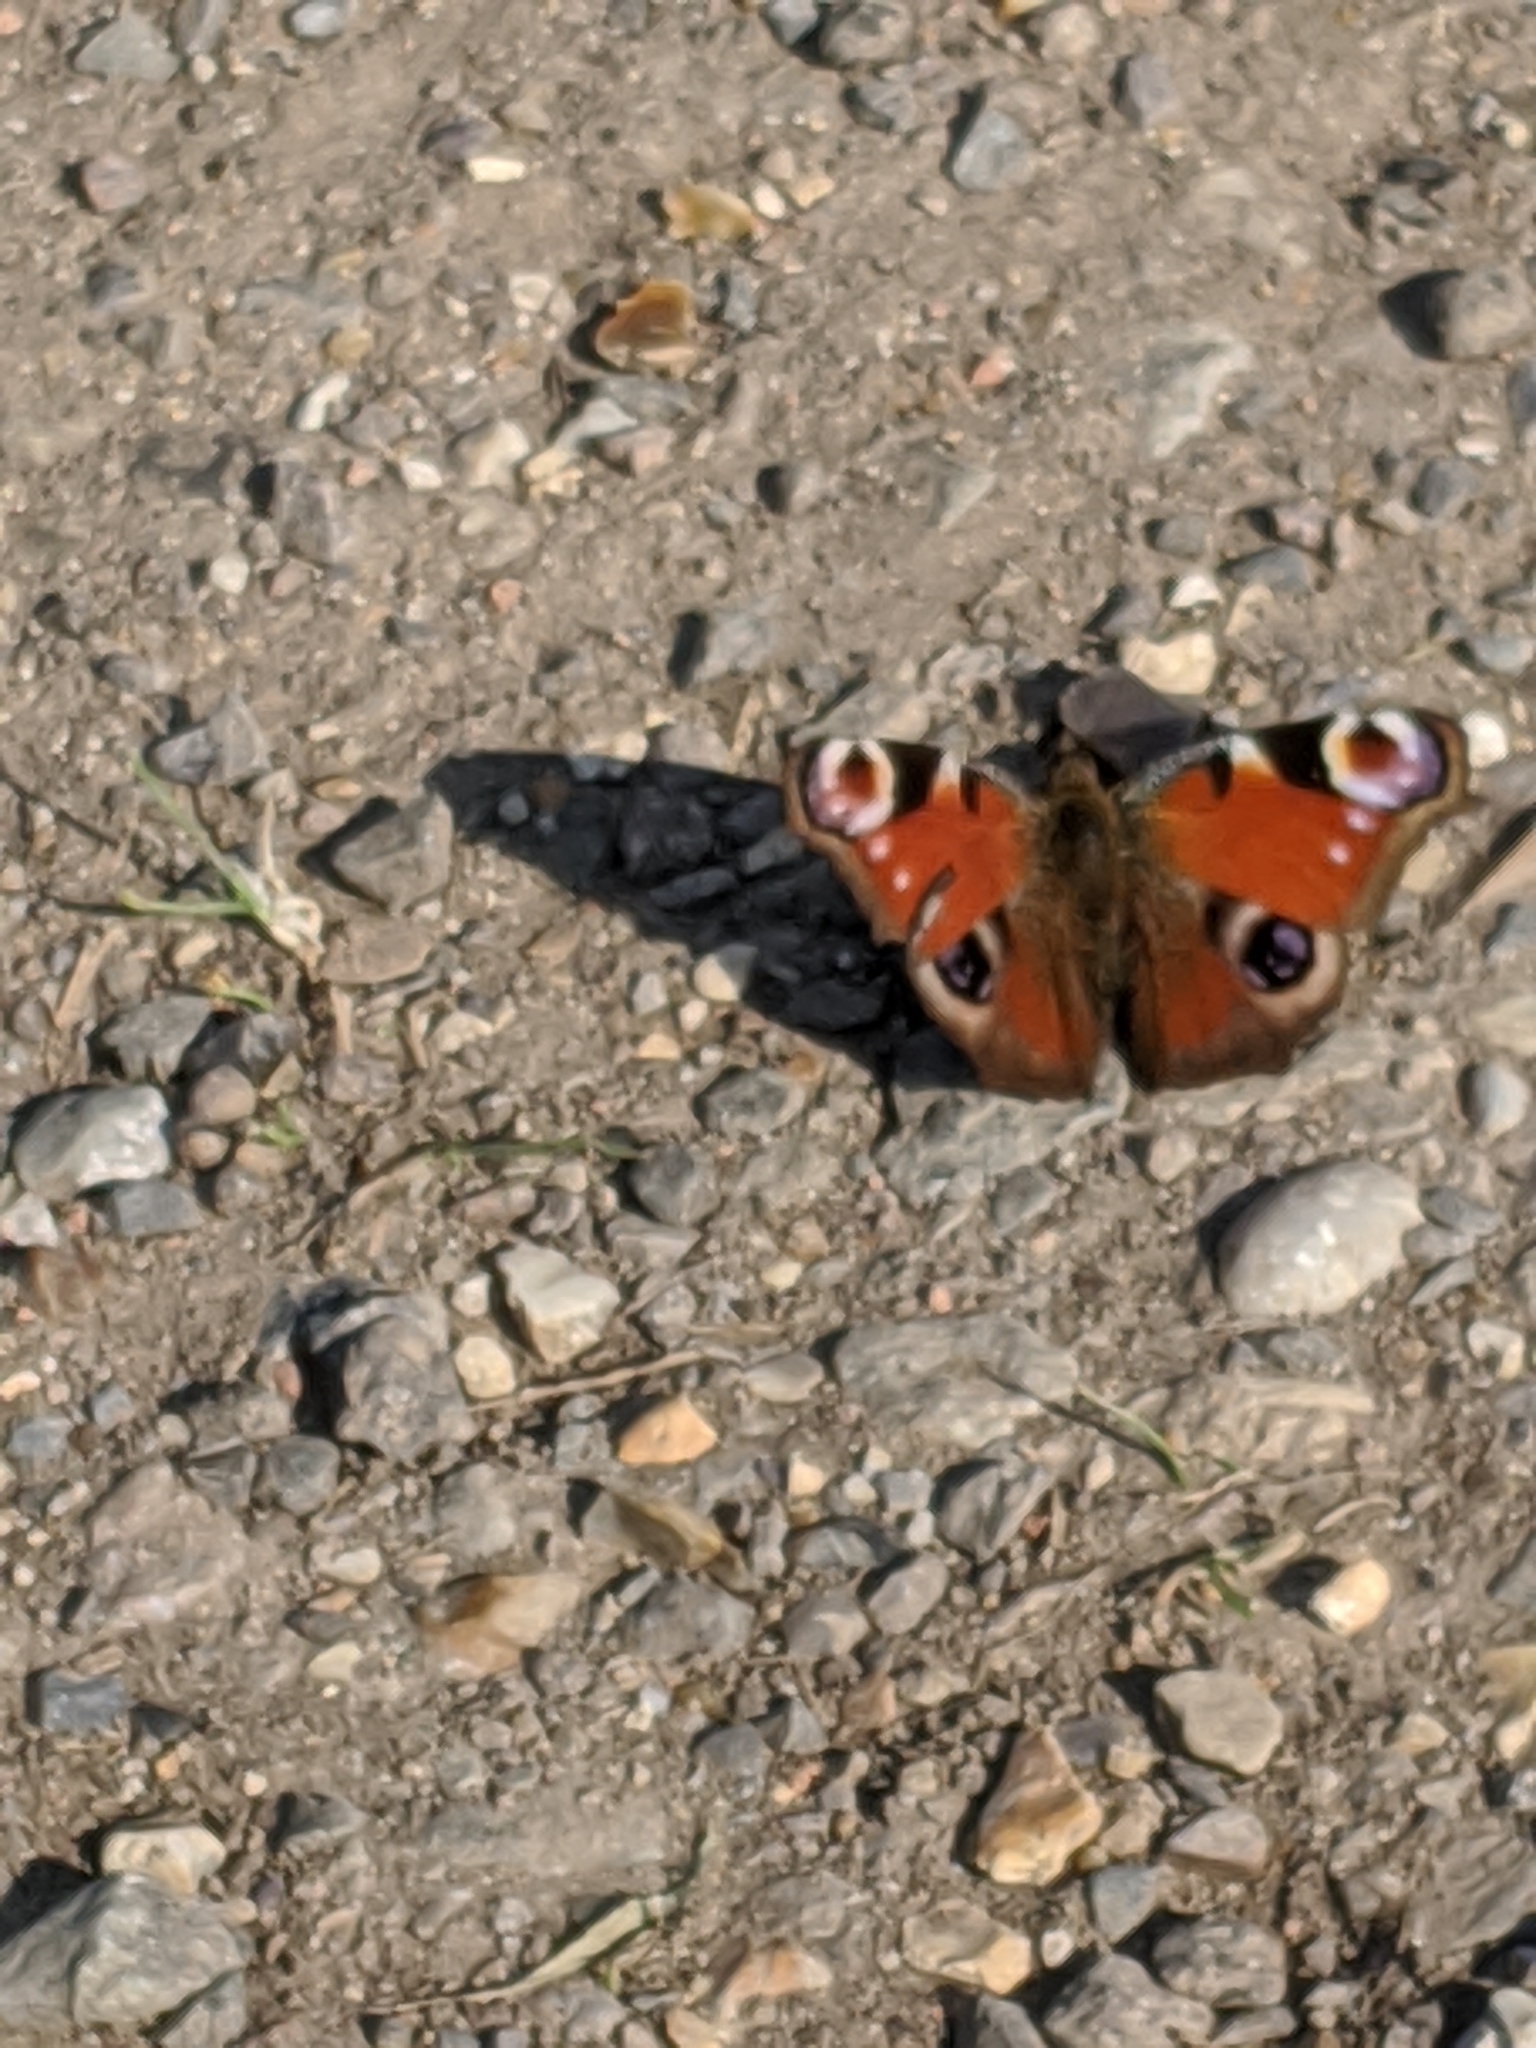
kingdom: Animalia
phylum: Arthropoda
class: Insecta
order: Lepidoptera
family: Nymphalidae
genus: Aglais
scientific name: Aglais io
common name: Peacock
